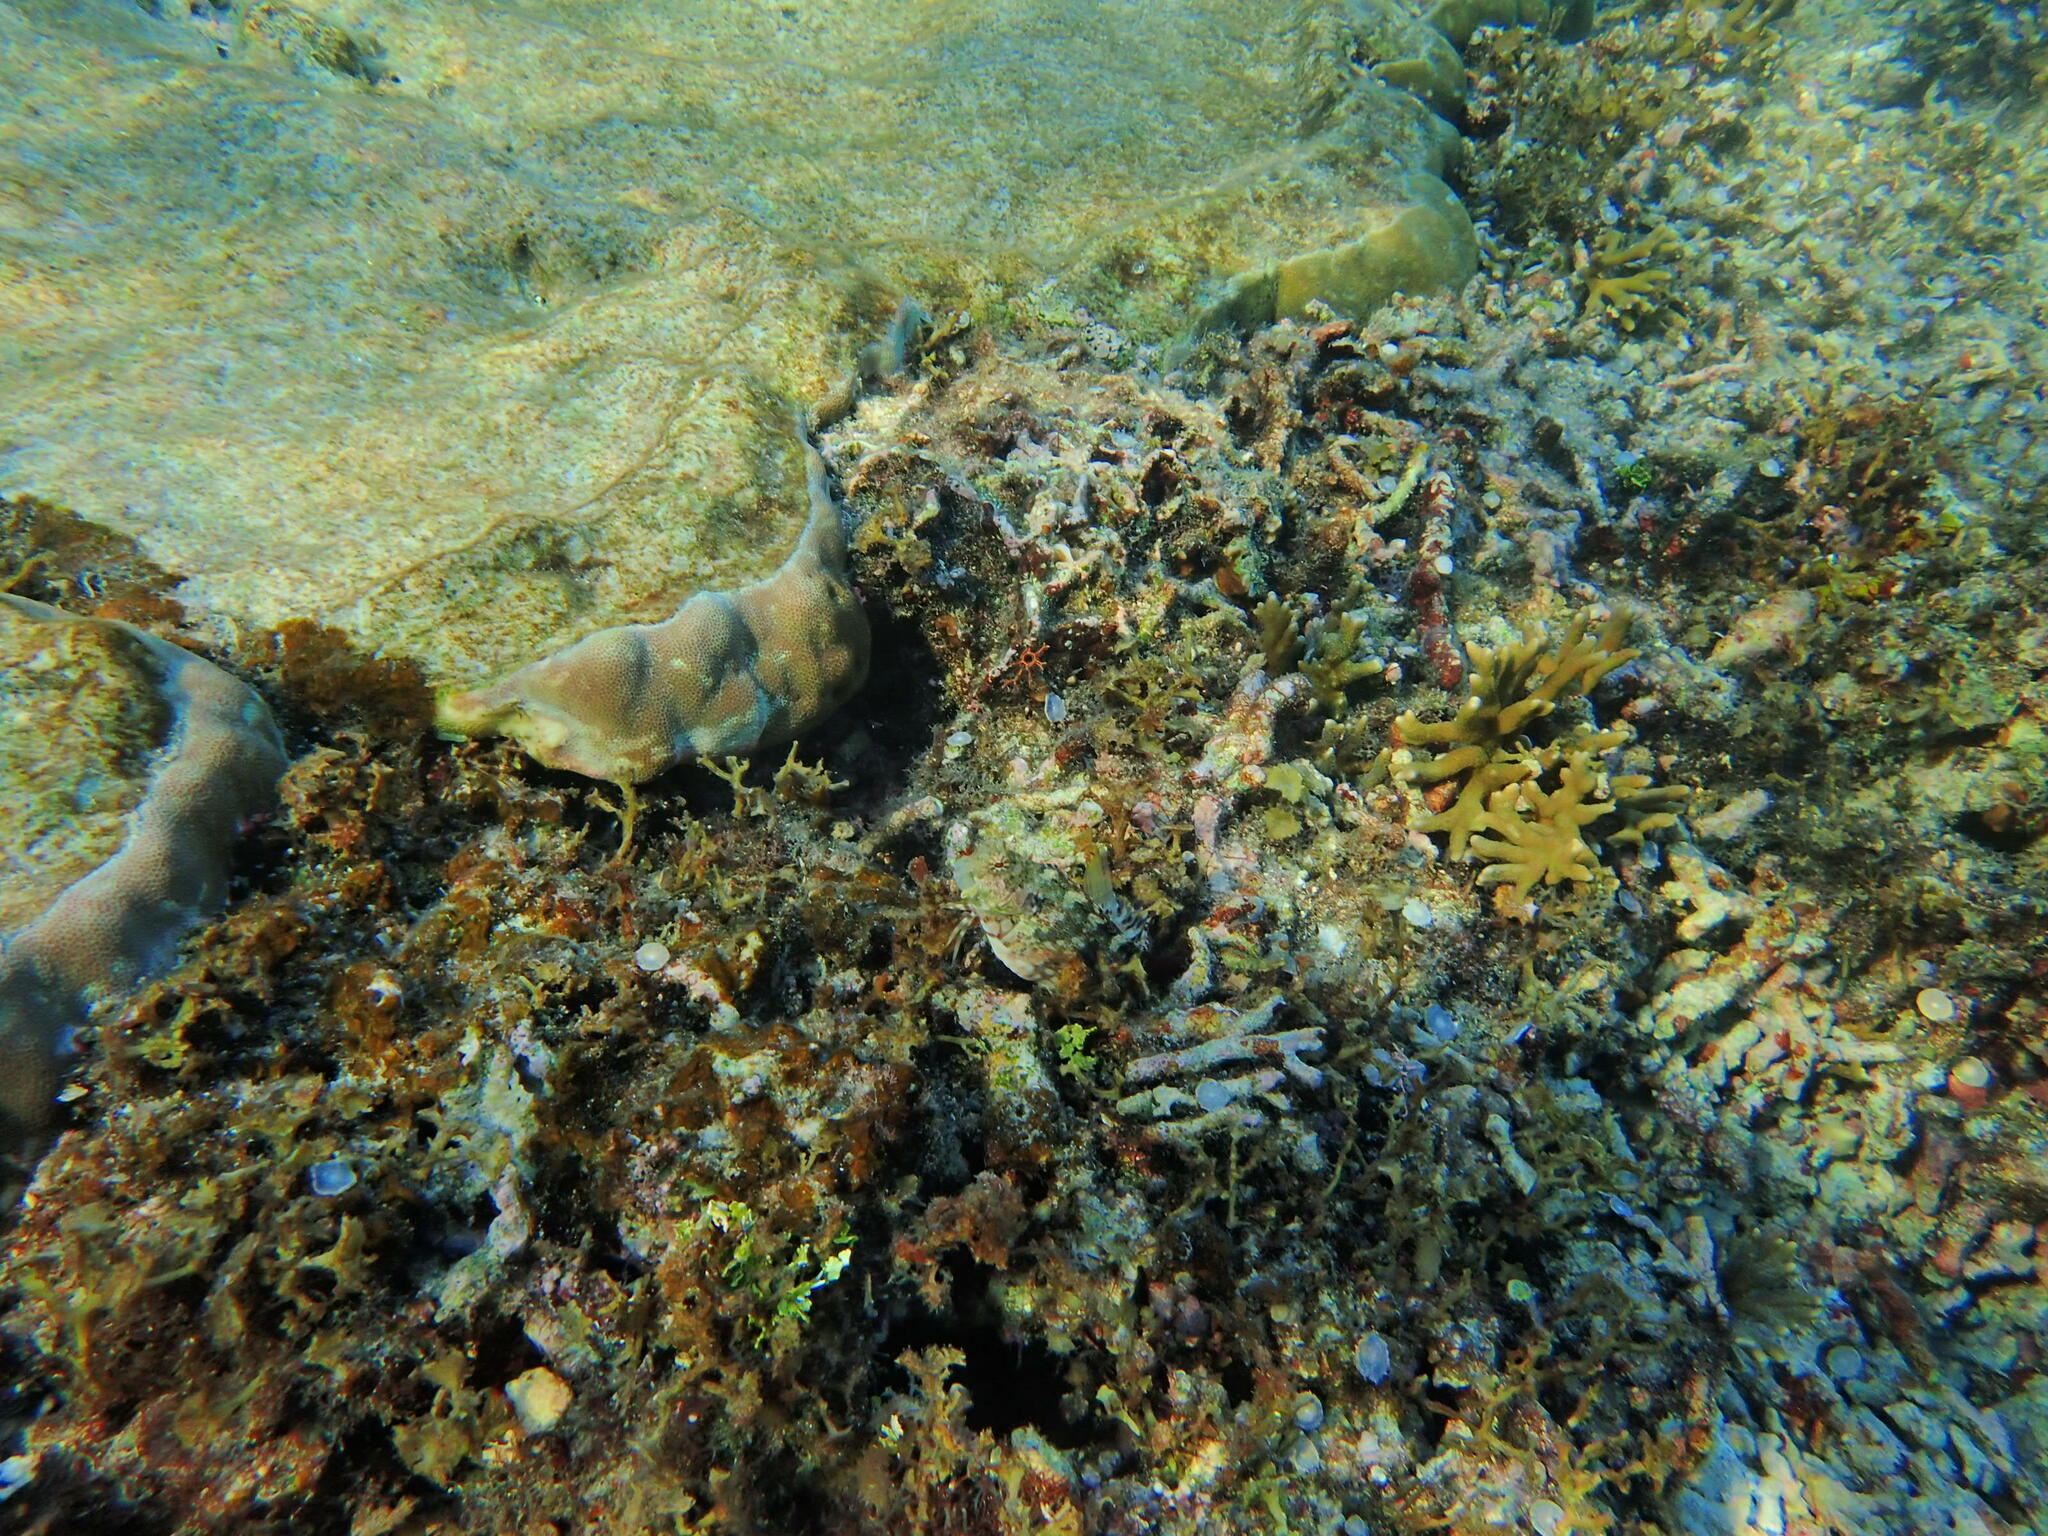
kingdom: Animalia
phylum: Chordata
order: Perciformes
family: Blenniidae
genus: Salarias
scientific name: Salarias fasciatus
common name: Jewelled blenny
